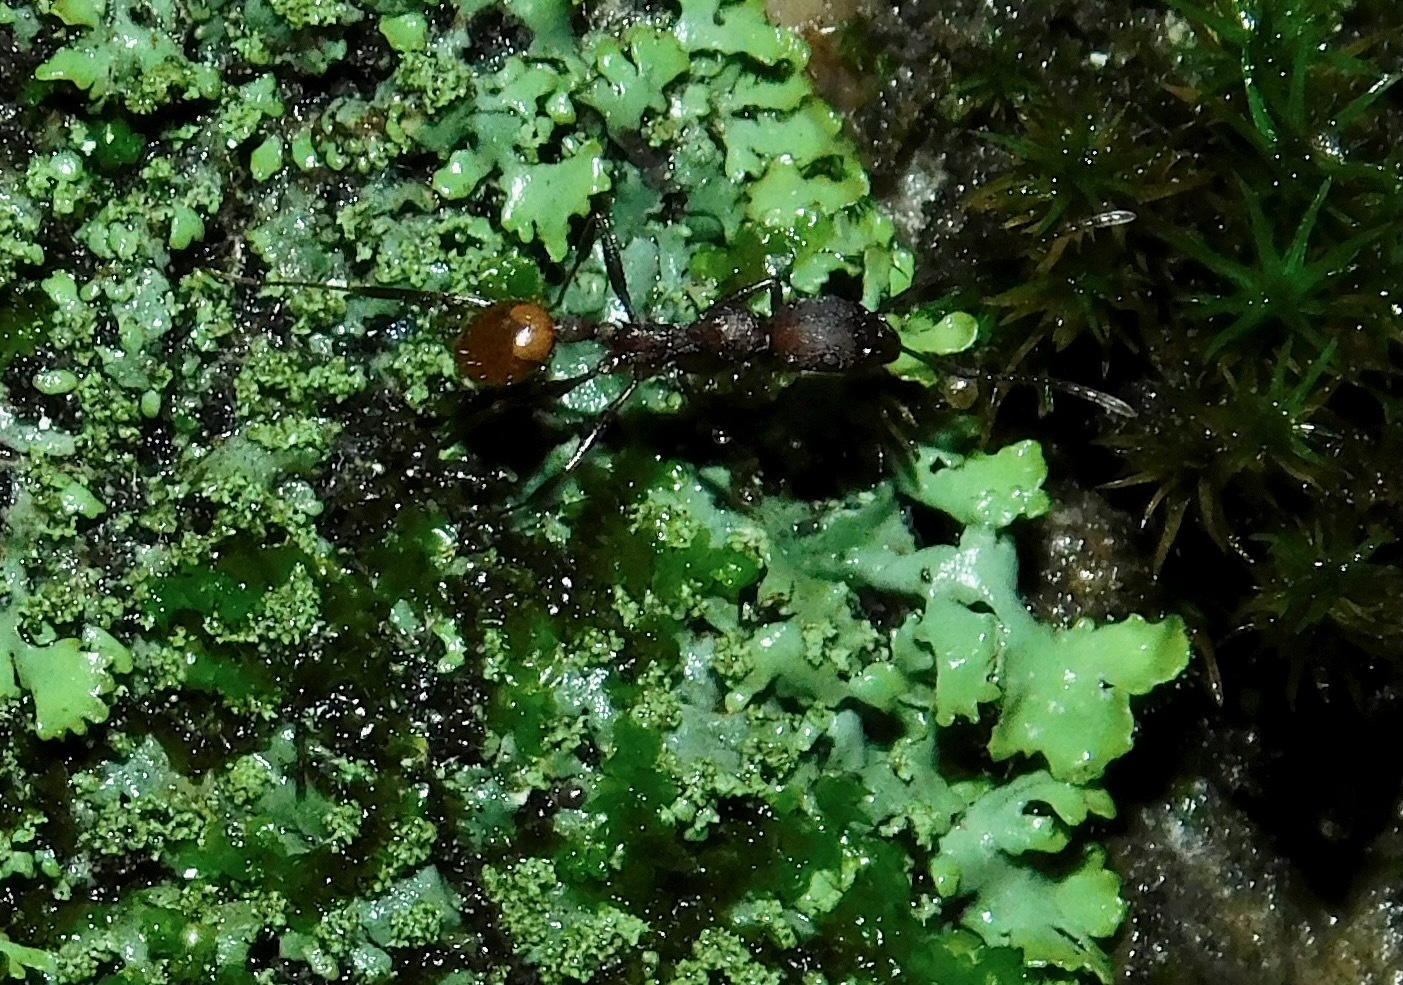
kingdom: Animalia
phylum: Arthropoda
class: Insecta
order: Hymenoptera
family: Formicidae
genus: Aphaenogaster
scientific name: Aphaenogaster lamellidens
